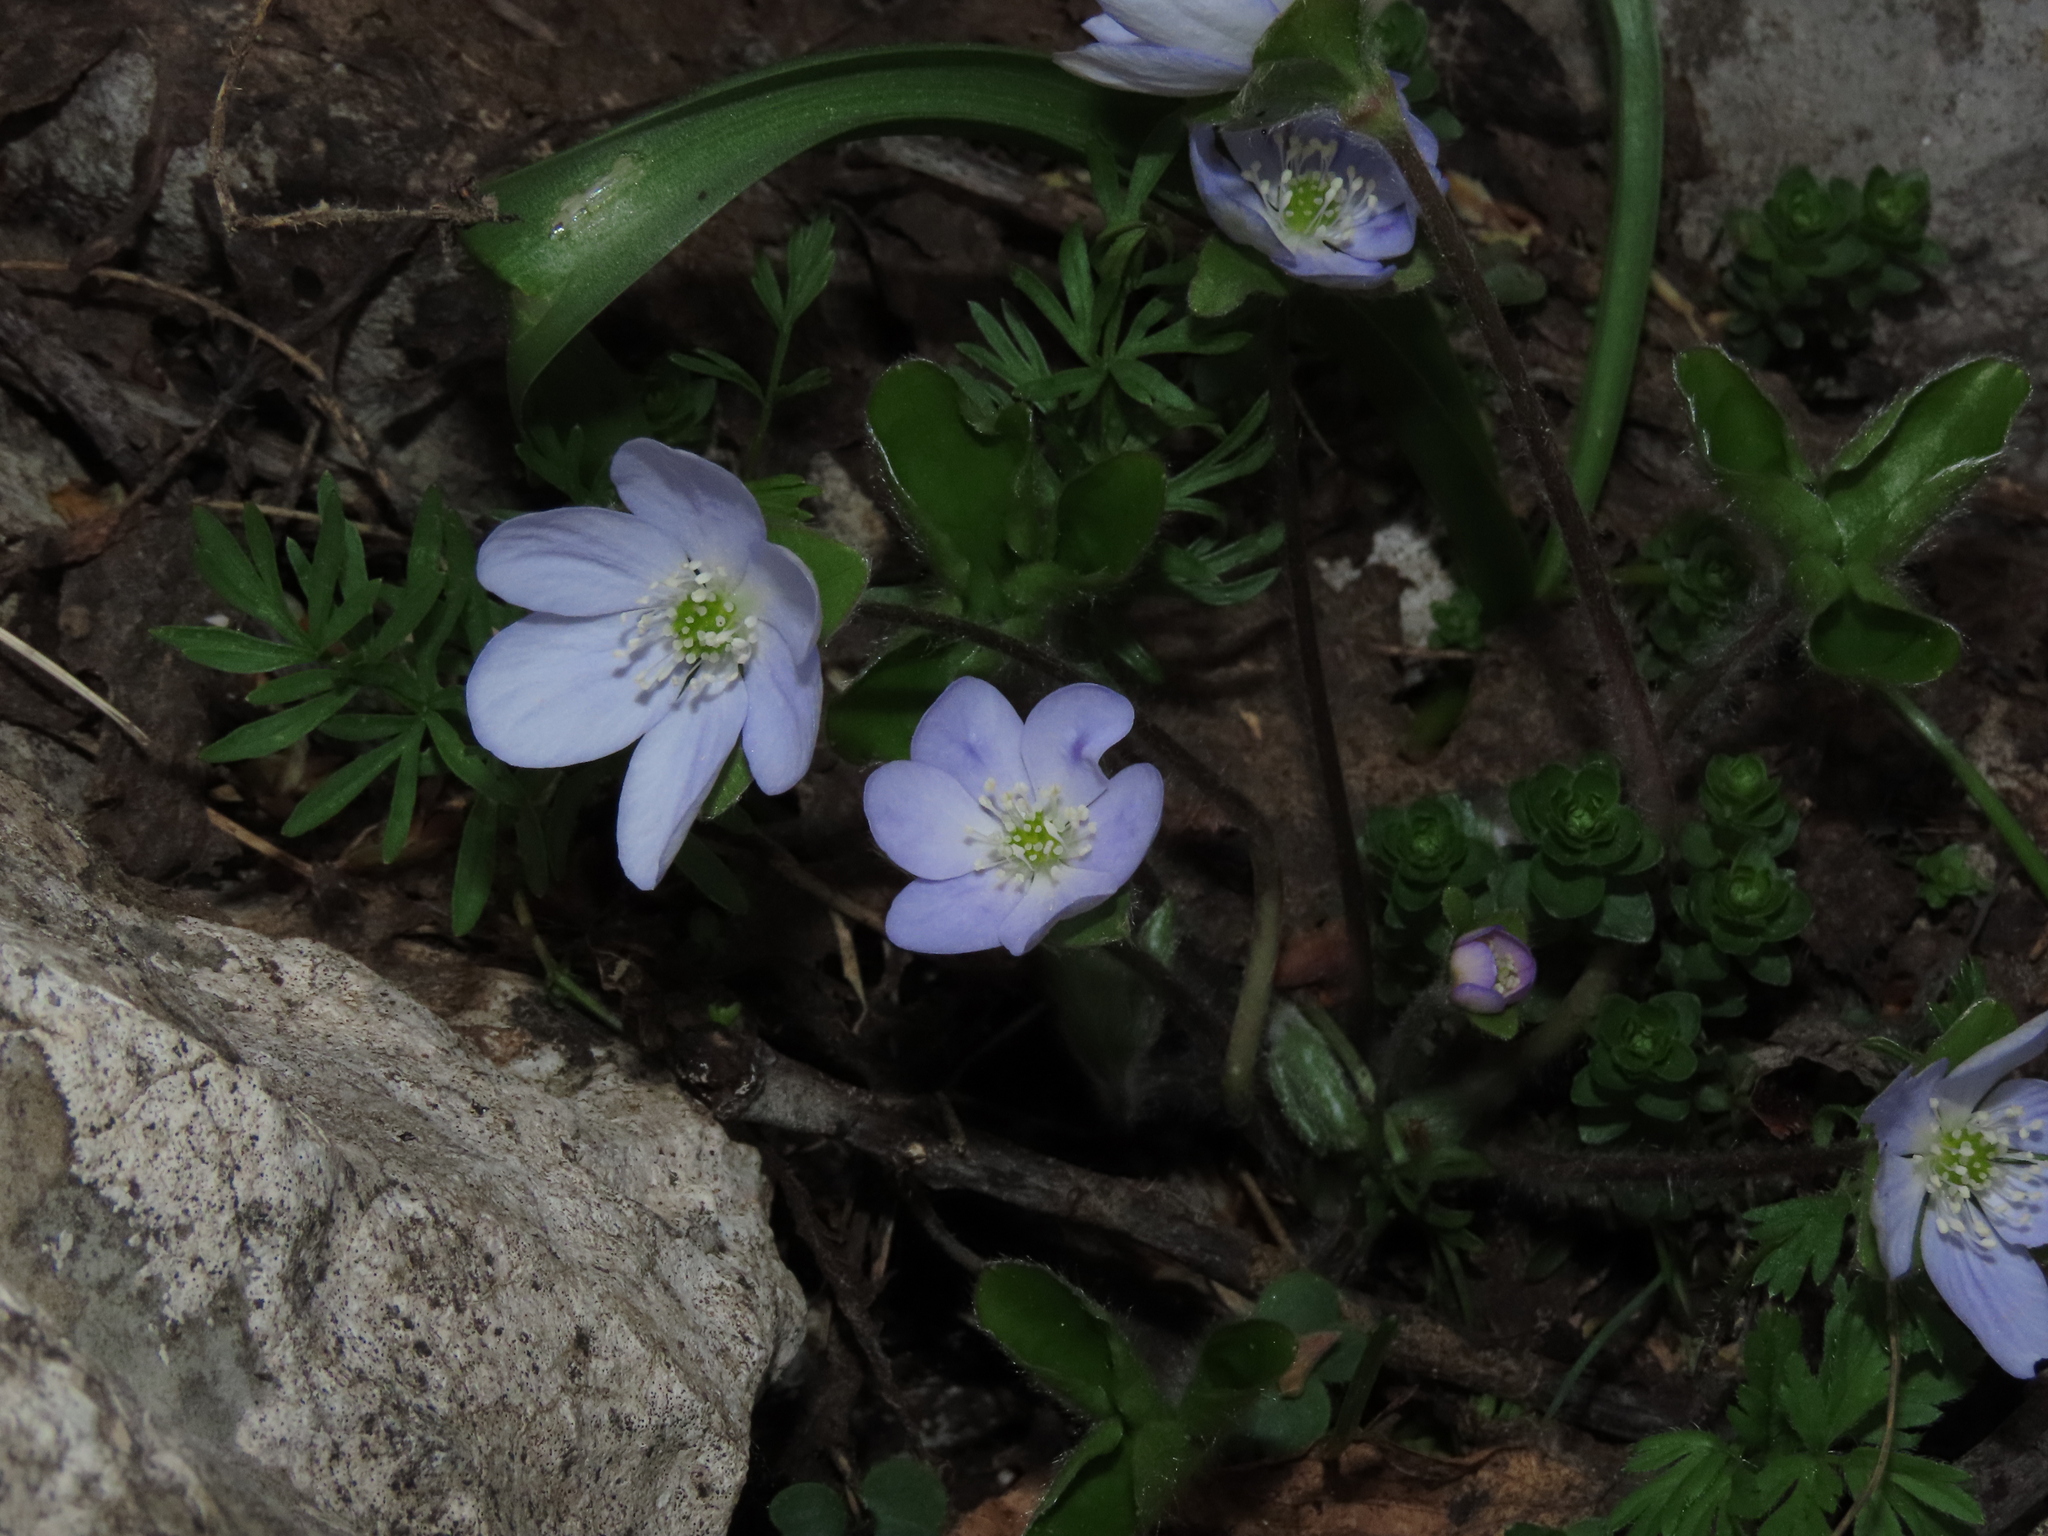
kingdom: Plantae
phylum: Tracheophyta
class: Magnoliopsida
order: Ranunculales
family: Ranunculaceae
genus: Hepatica
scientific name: Hepatica nobilis
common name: Liverleaf
